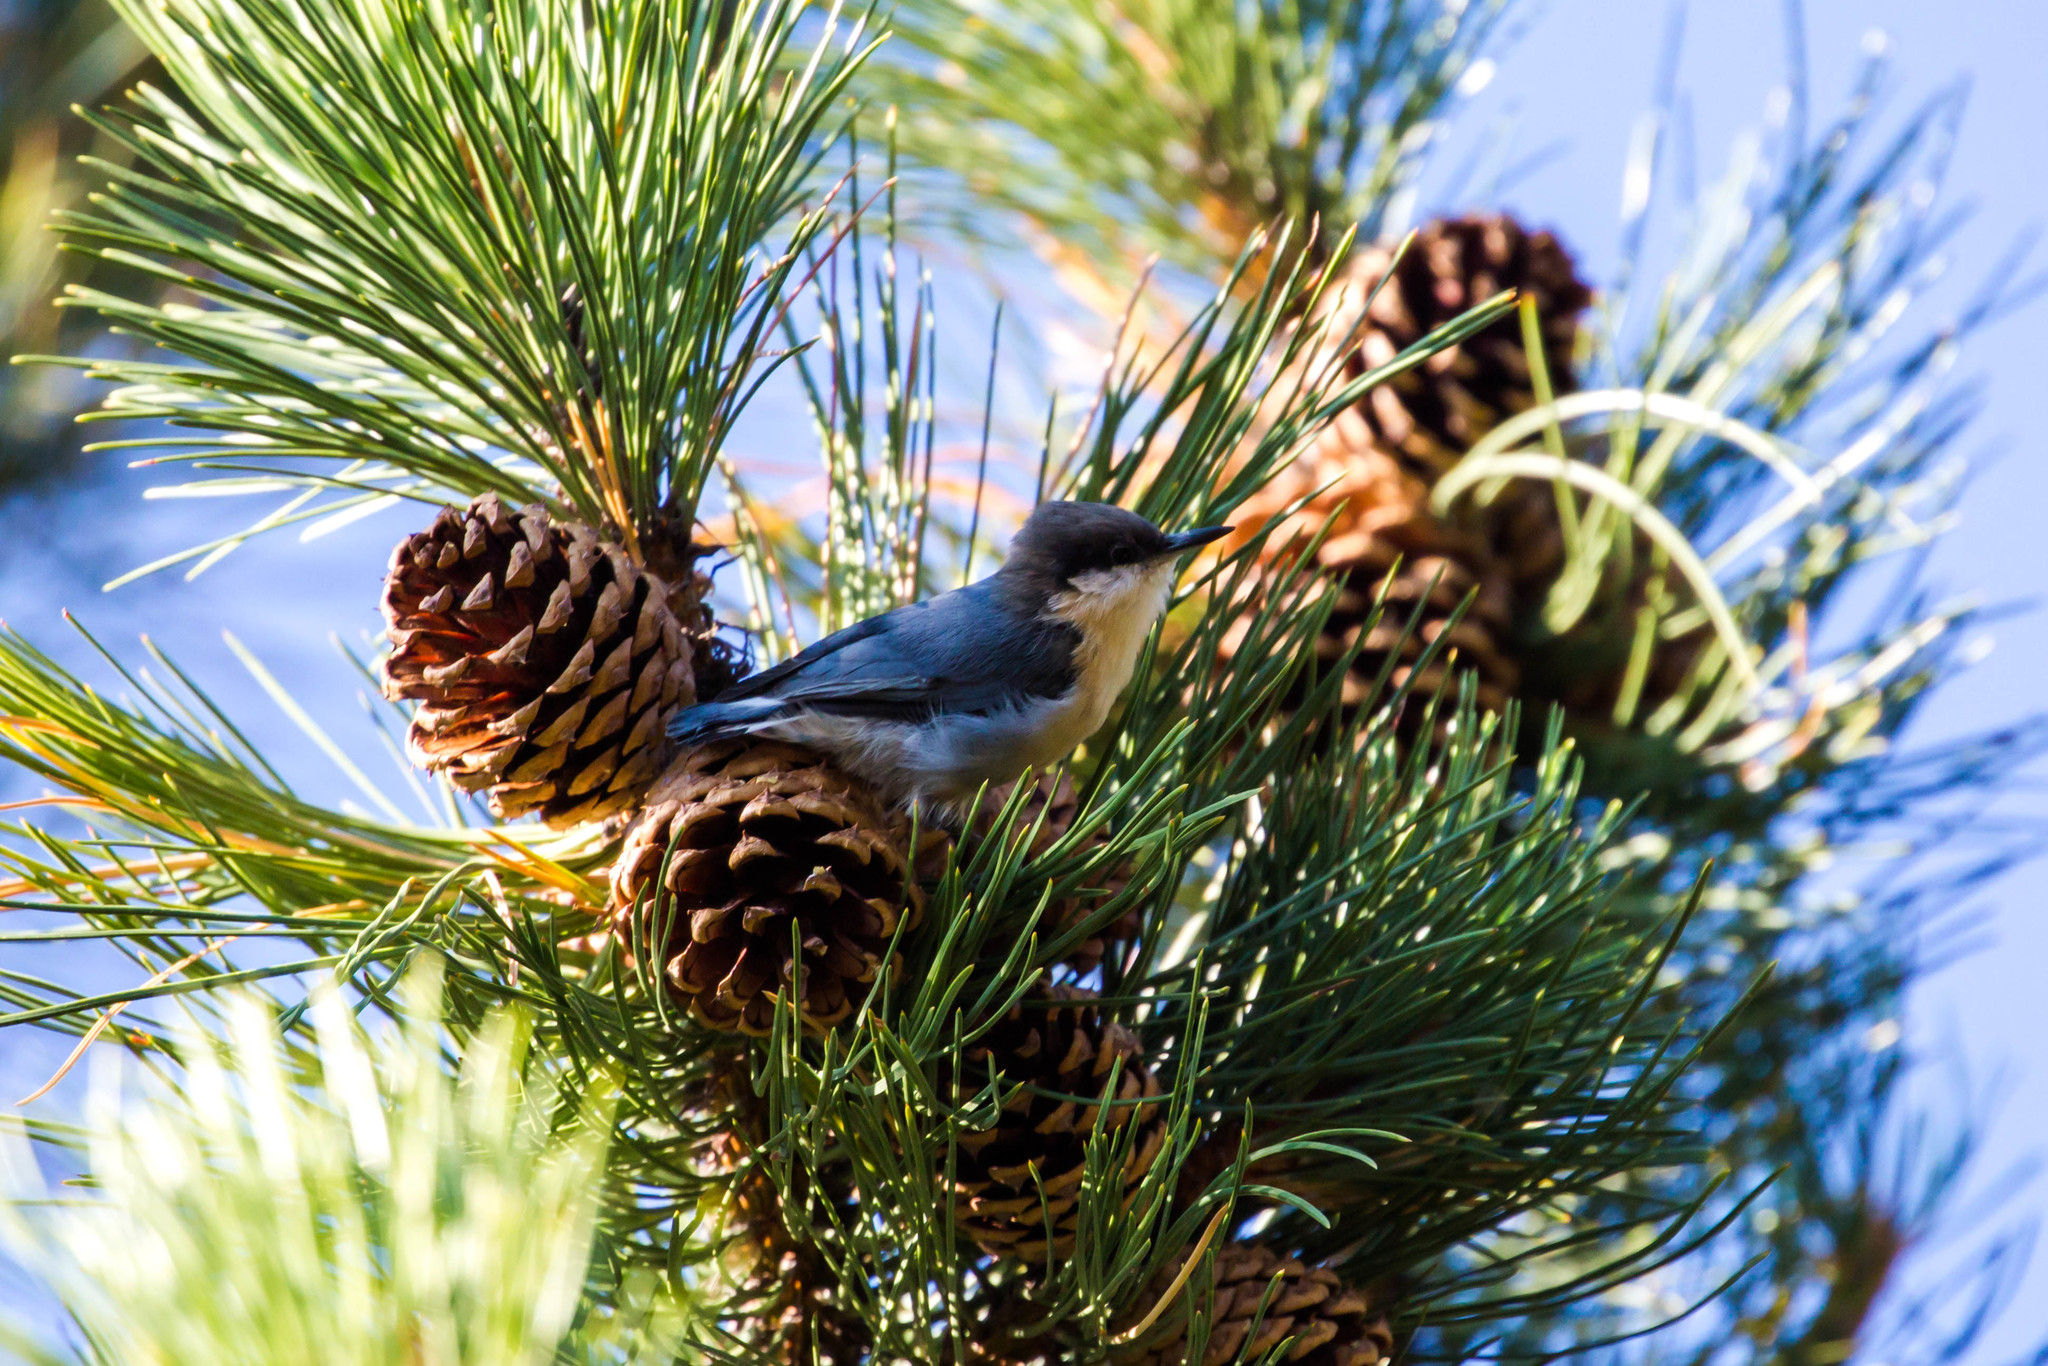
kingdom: Animalia
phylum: Chordata
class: Aves
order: Passeriformes
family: Sittidae
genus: Sitta
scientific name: Sitta pygmaea
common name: Pygmy nuthatch
